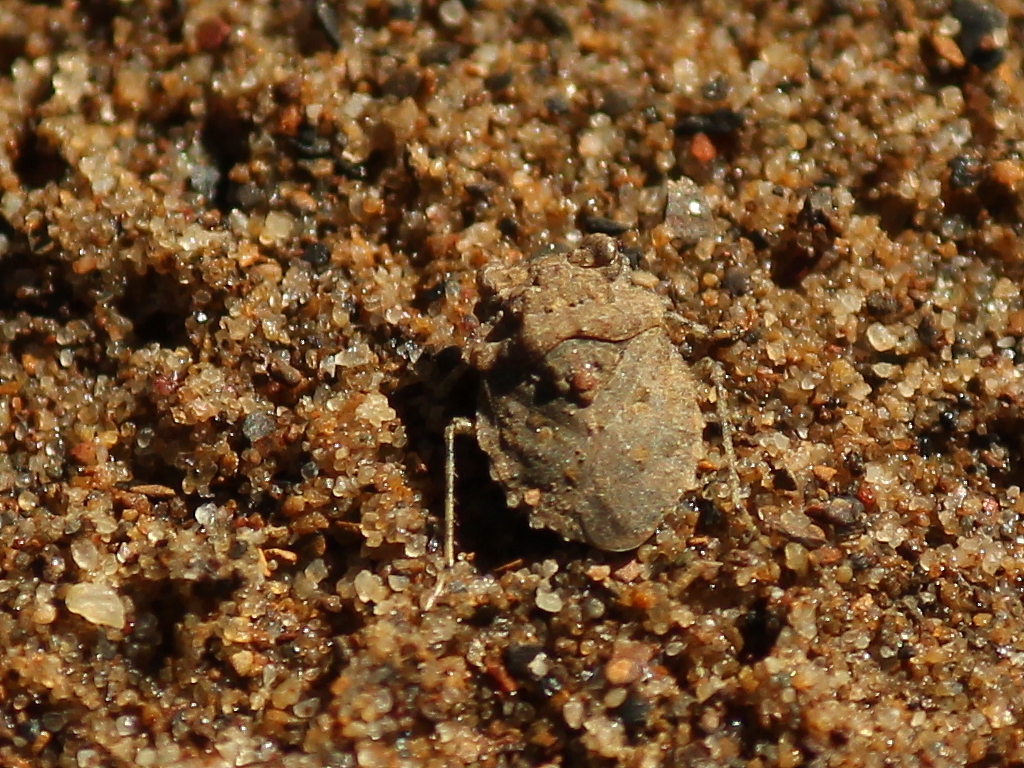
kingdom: Animalia
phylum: Arthropoda
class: Insecta
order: Hemiptera
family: Gelastocoridae
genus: Gelastocoris
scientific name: Gelastocoris oculatus
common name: Toad bug
